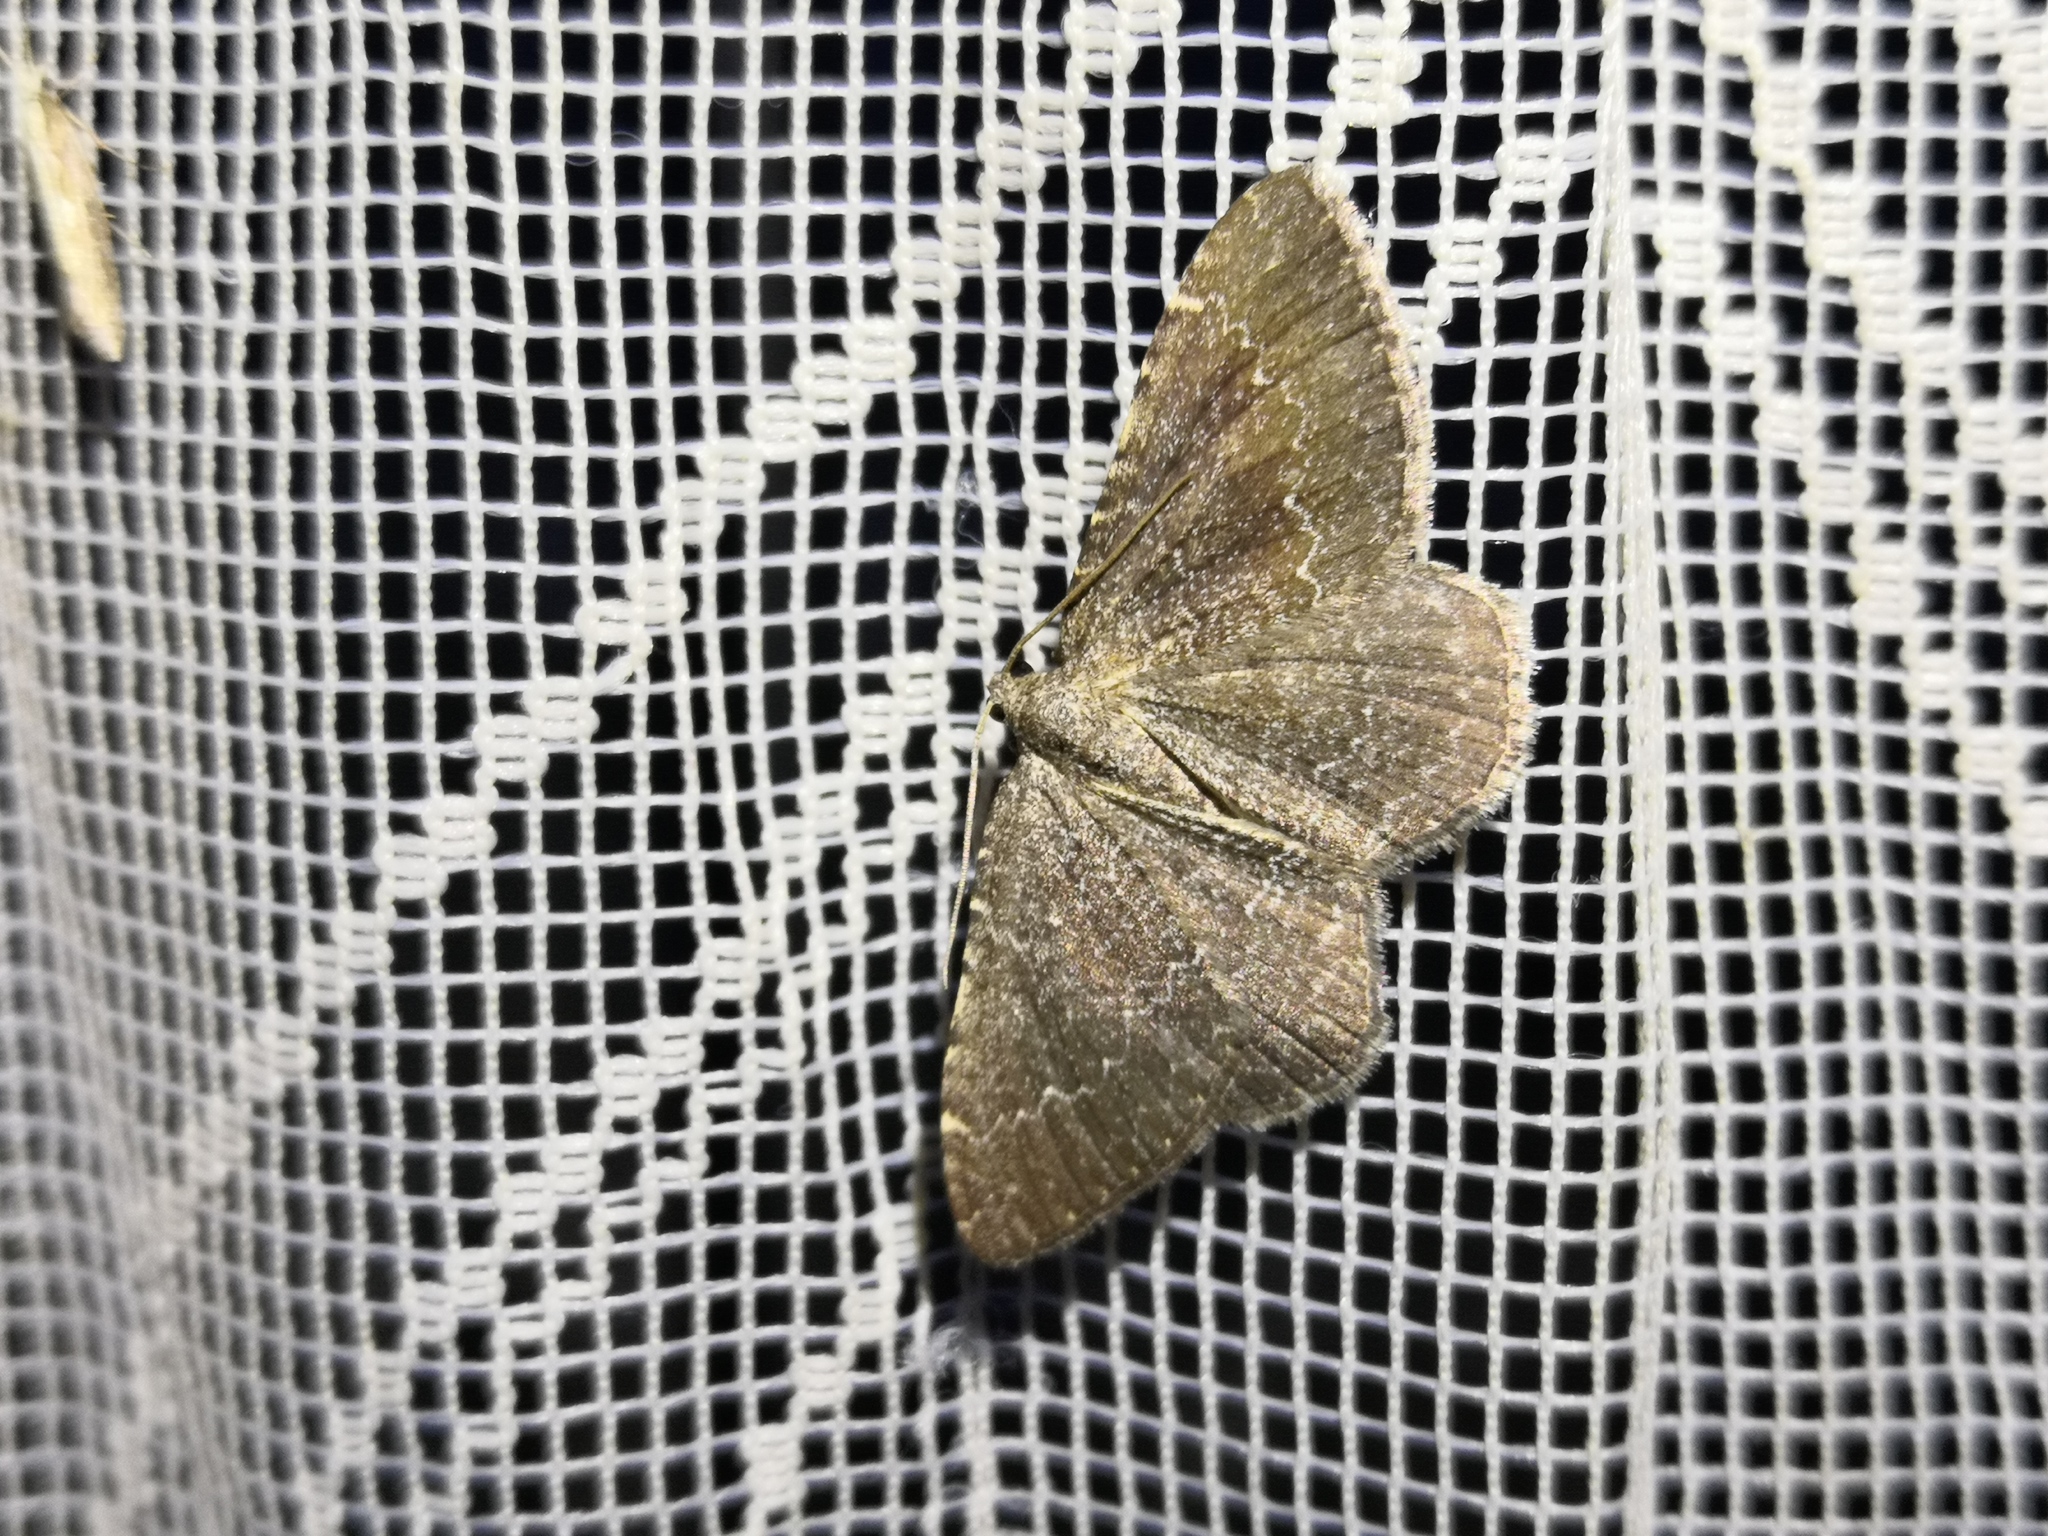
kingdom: Animalia
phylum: Arthropoda
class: Insecta
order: Lepidoptera
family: Geometridae
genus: Cataclysme
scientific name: Cataclysme riguata
